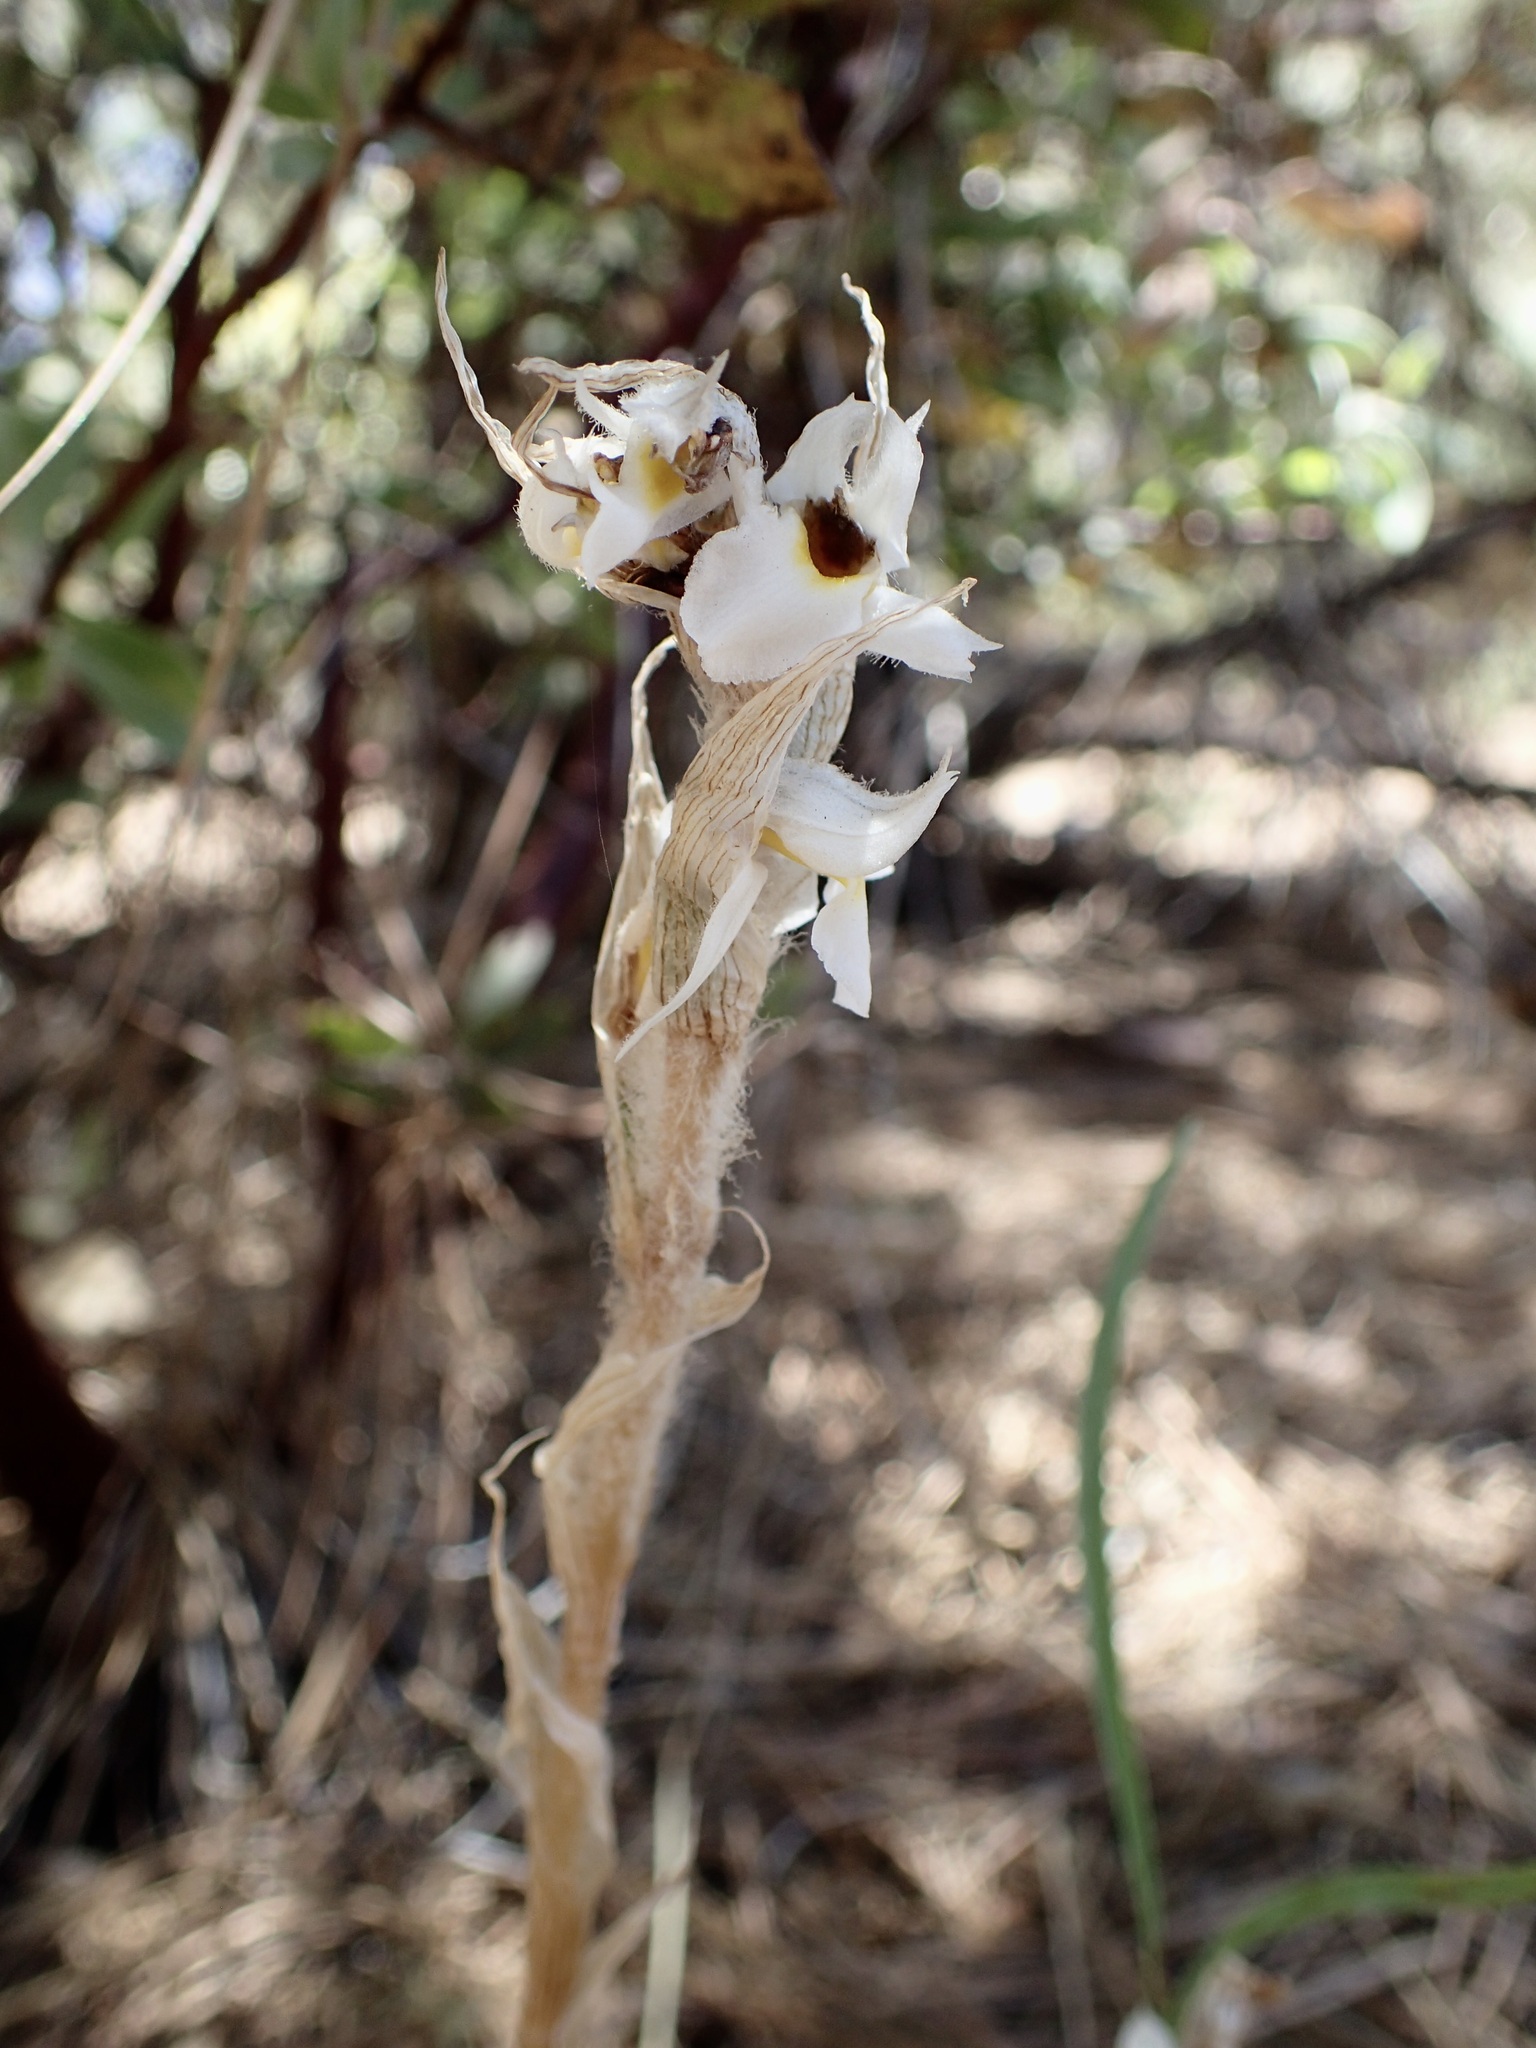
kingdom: Plantae
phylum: Tracheophyta
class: Liliopsida
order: Asparagales
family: Orchidaceae
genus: Deiregyne
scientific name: Deiregyne eriophora
